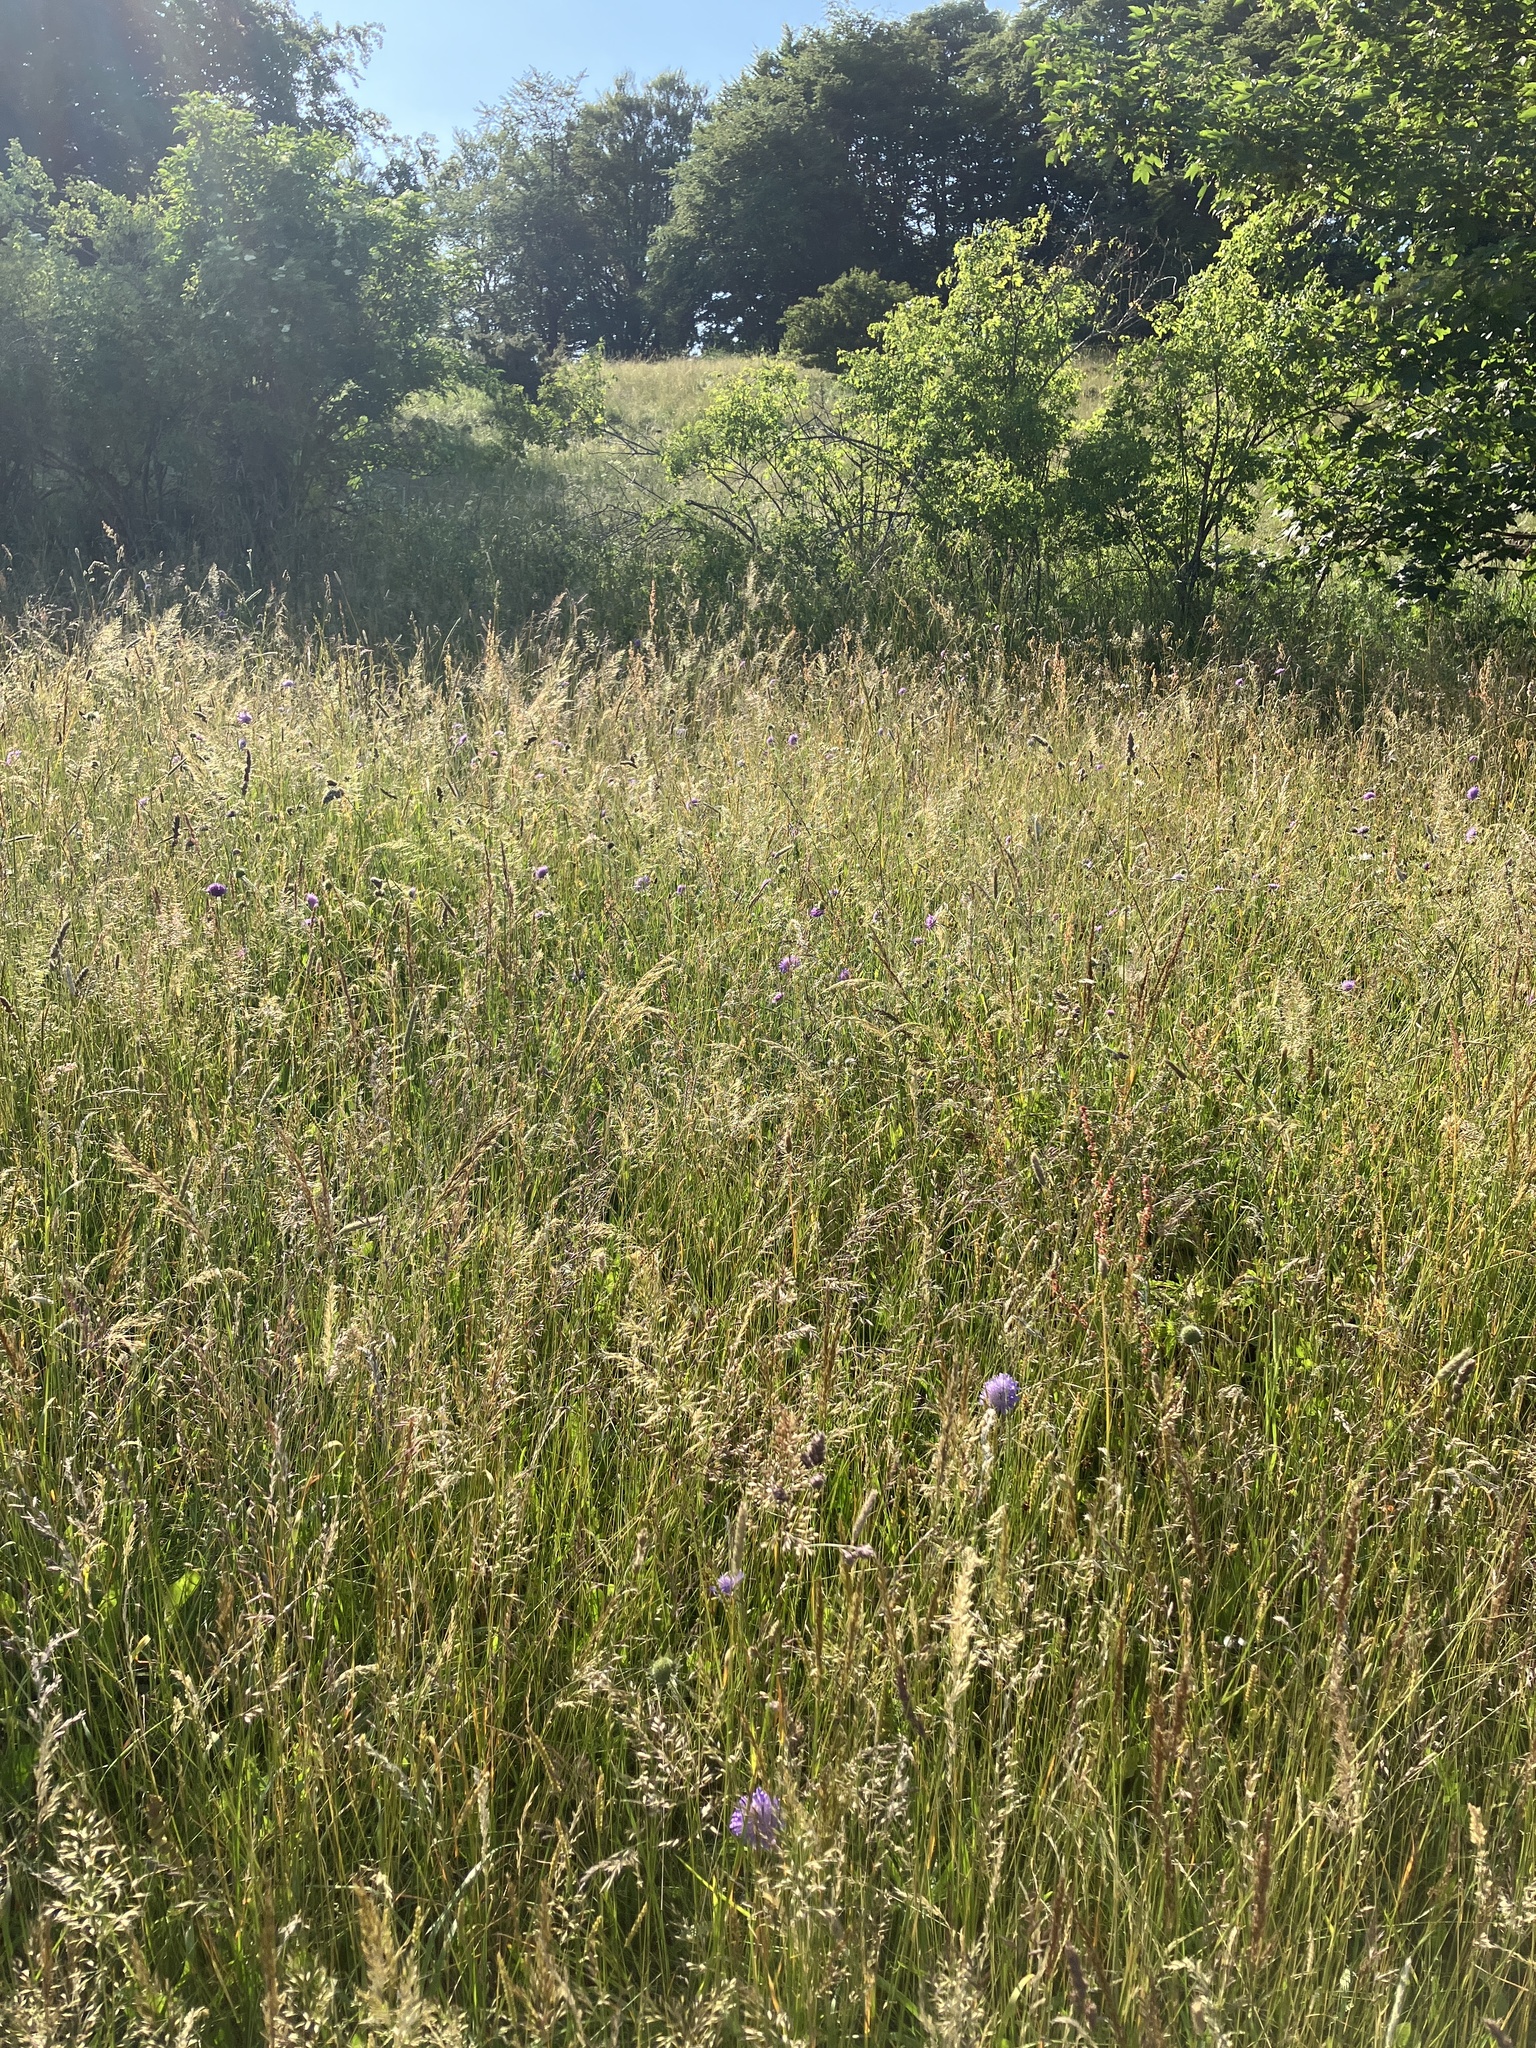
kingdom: Plantae
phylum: Tracheophyta
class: Liliopsida
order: Poales
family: Poaceae
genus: Trisetum
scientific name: Trisetum flavescens
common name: Yellow oat-grass
